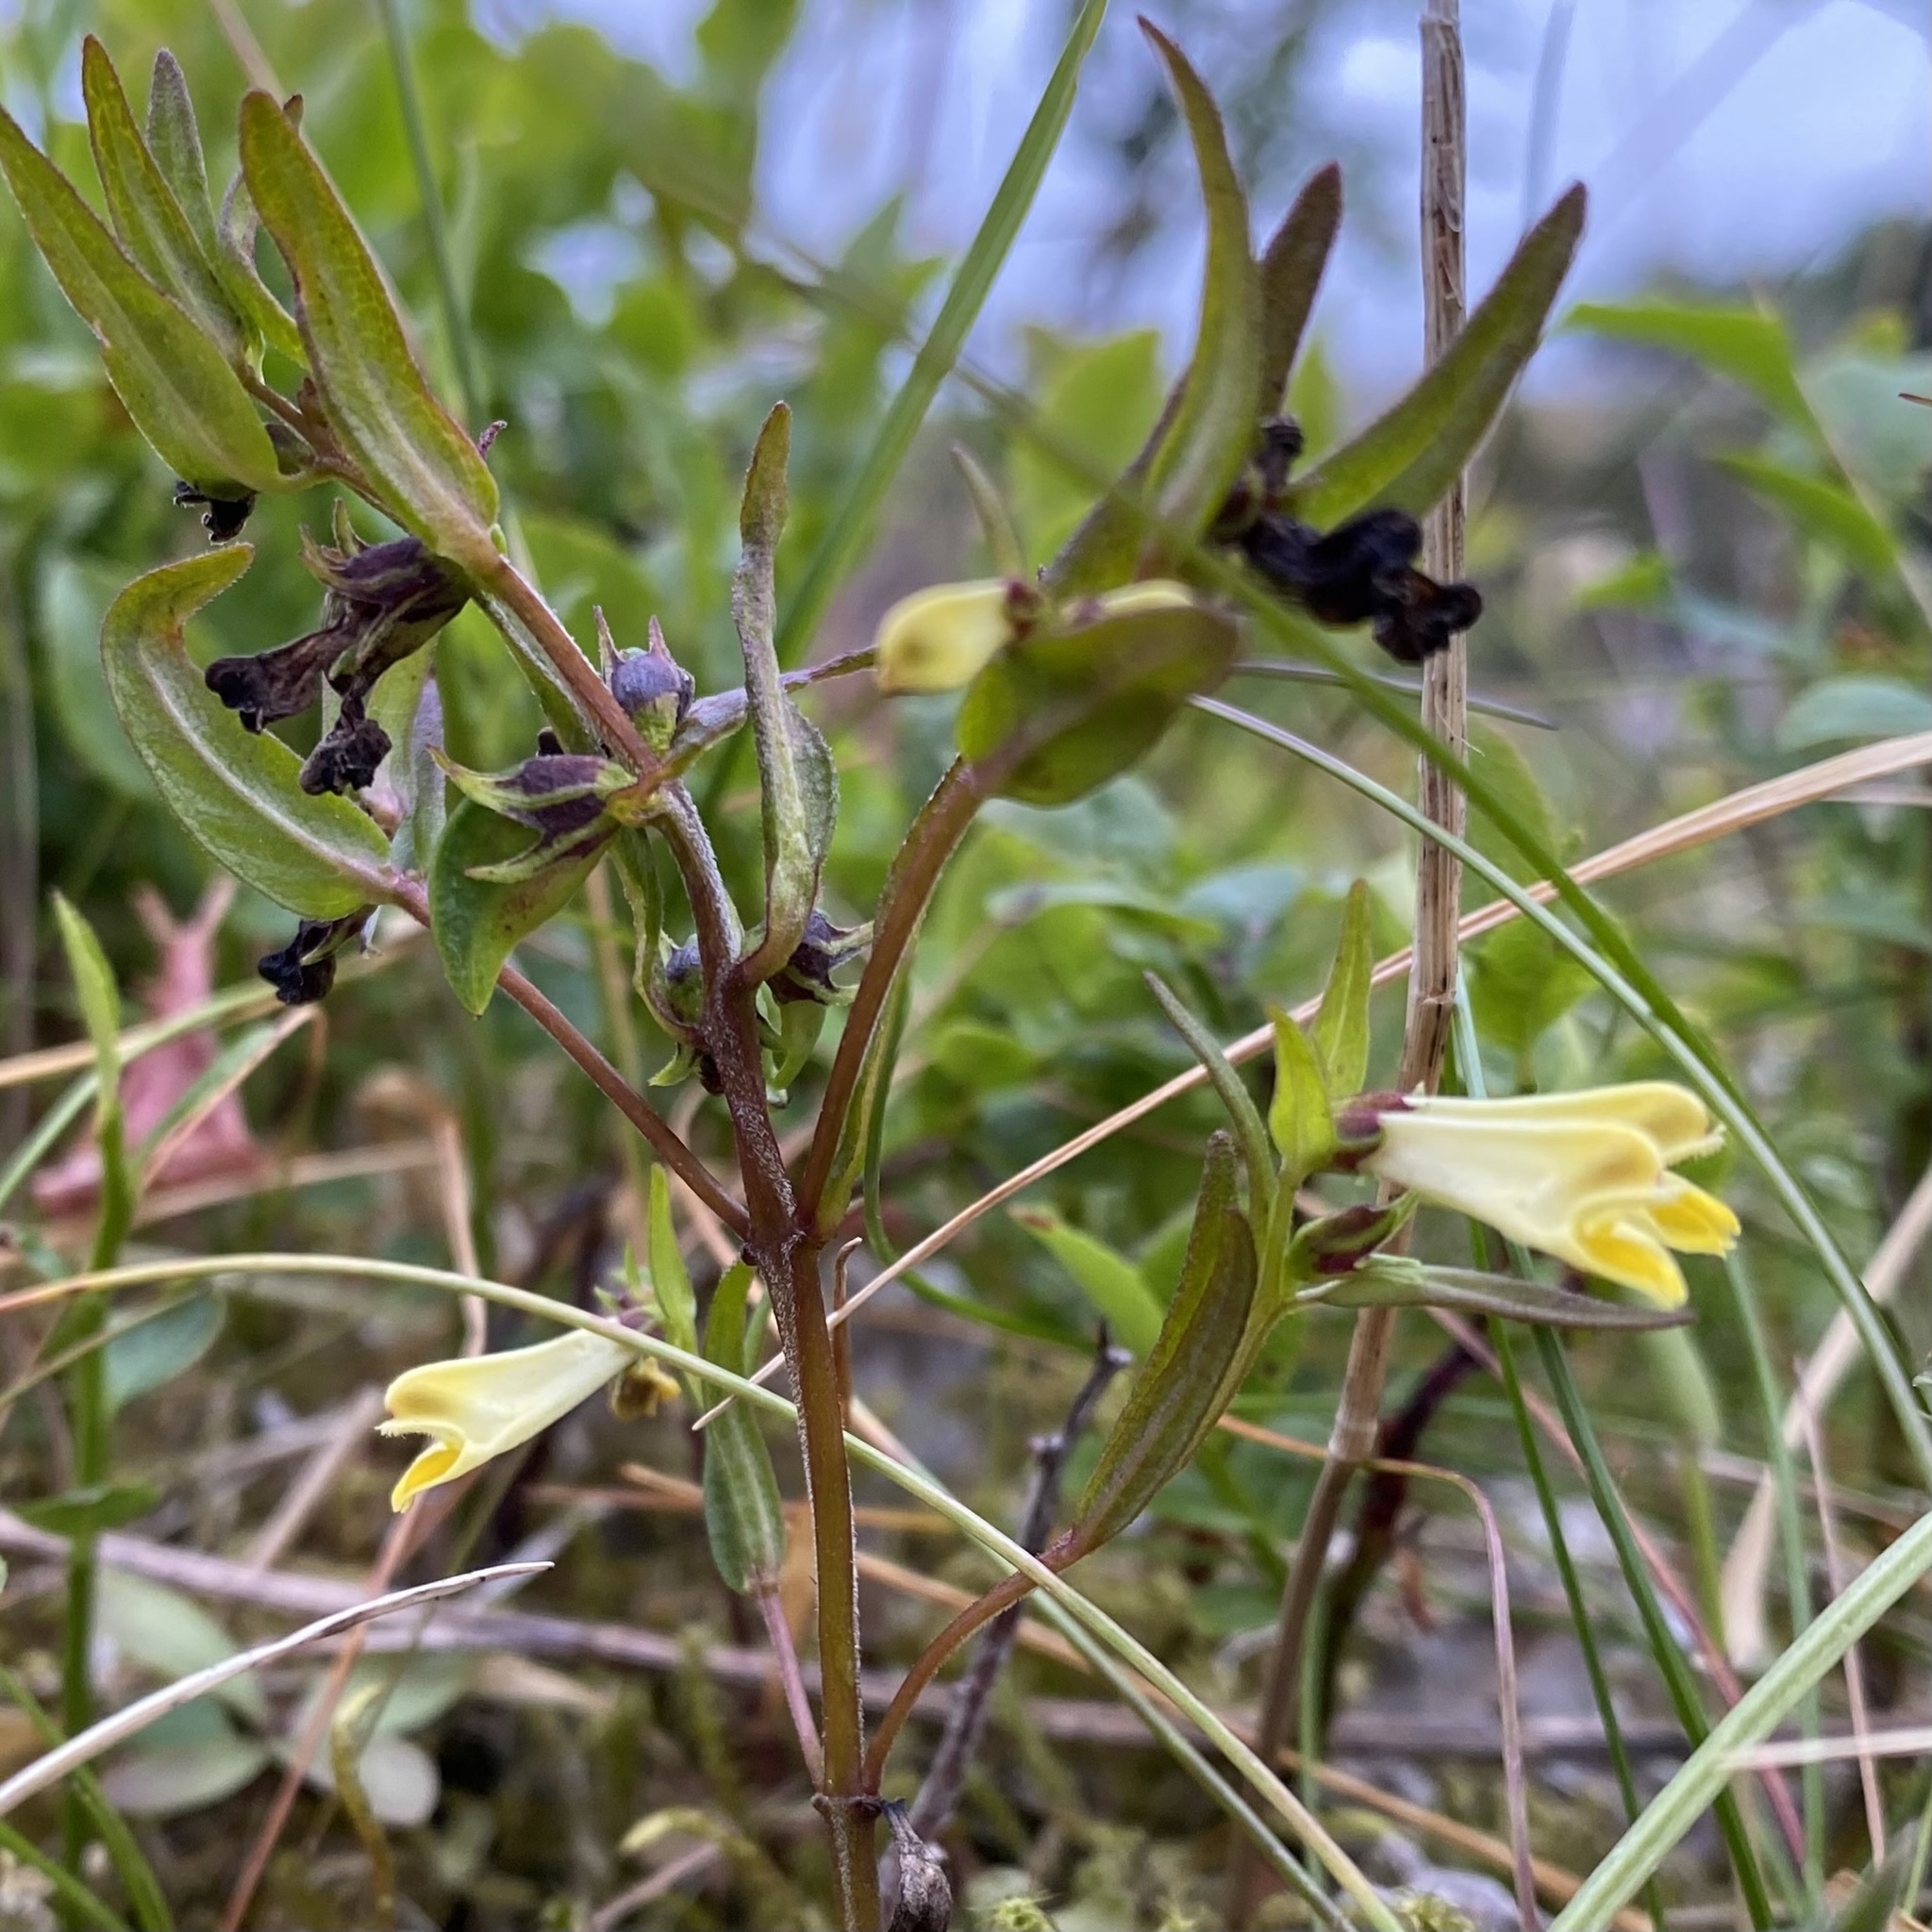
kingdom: Plantae
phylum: Tracheophyta
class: Magnoliopsida
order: Lamiales
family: Orobanchaceae
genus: Melampyrum
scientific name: Melampyrum pratense
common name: Common cow-wheat
